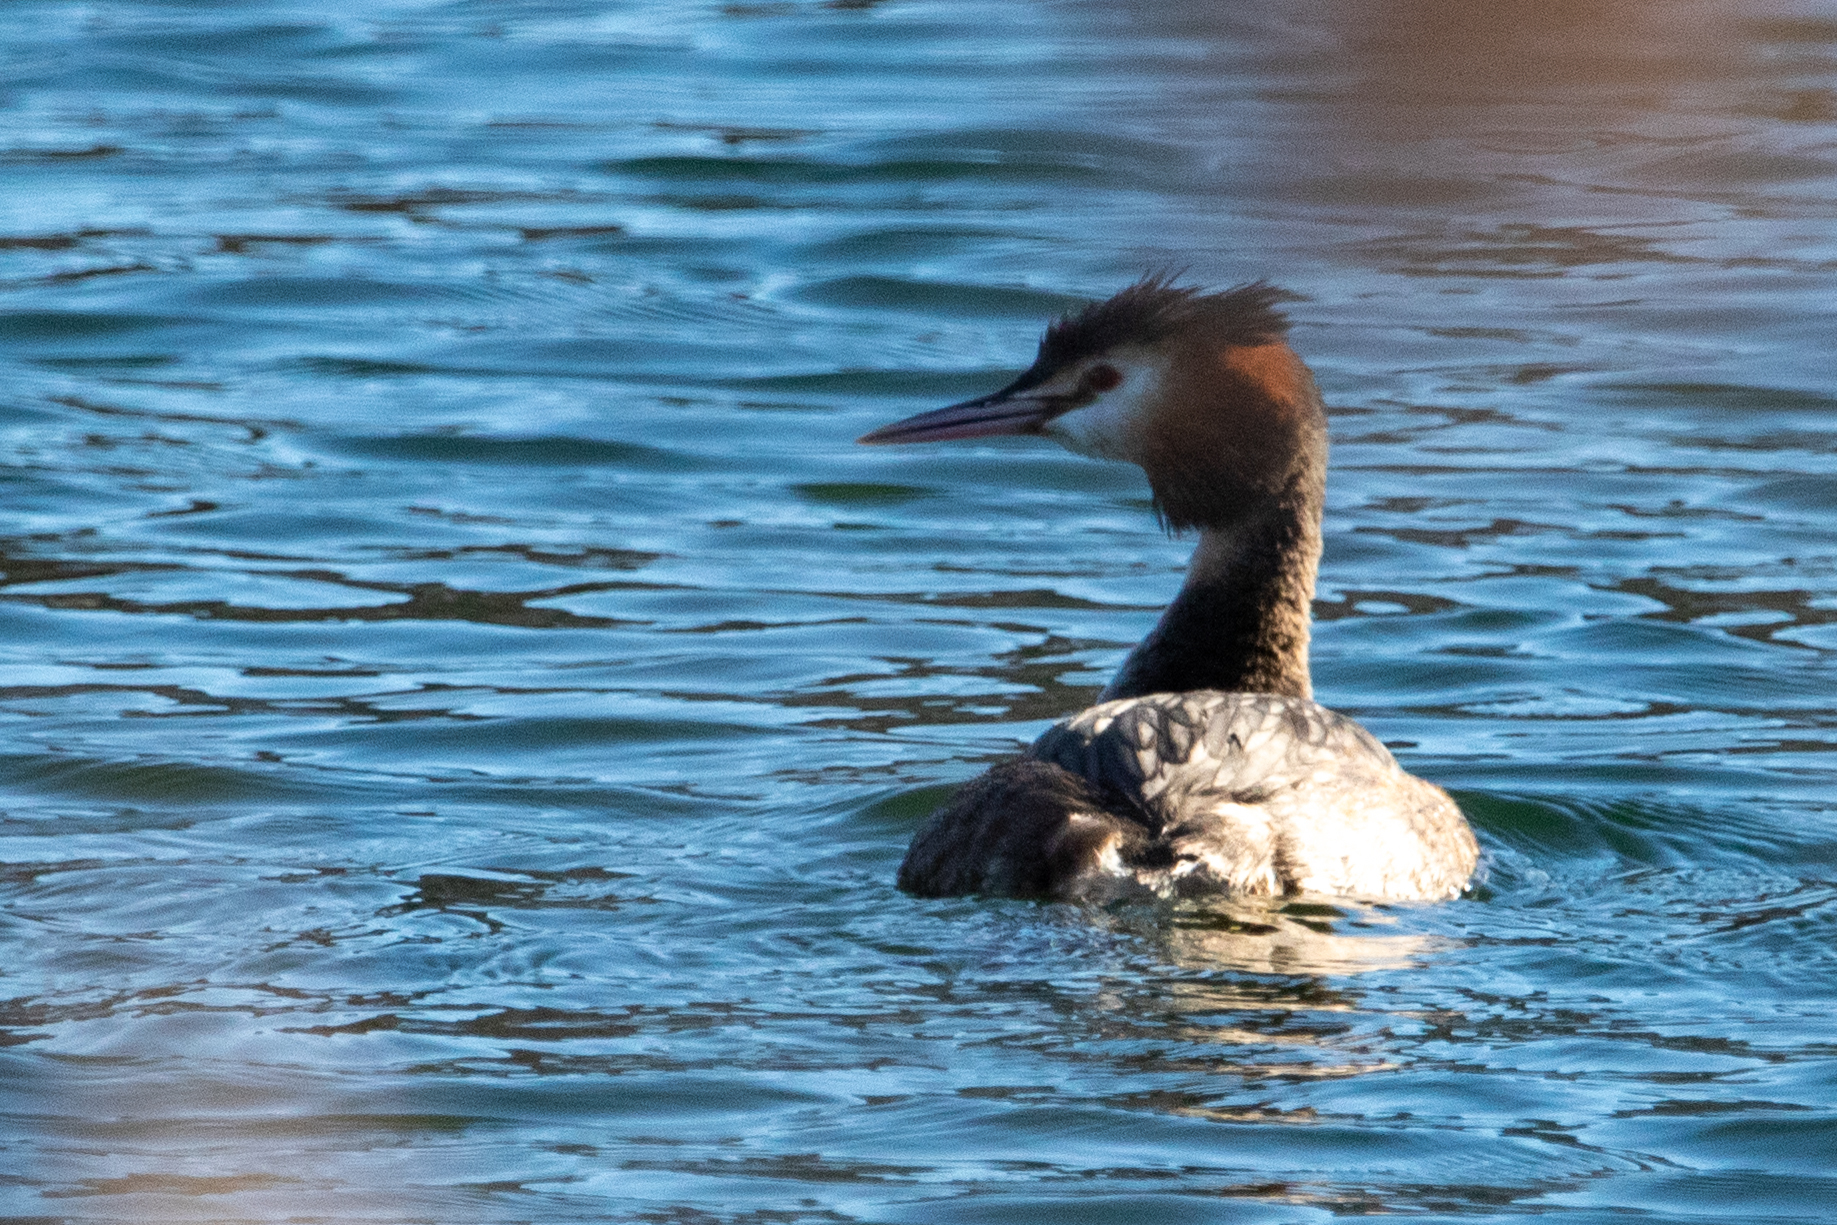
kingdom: Animalia
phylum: Chordata
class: Aves
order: Podicipediformes
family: Podicipedidae
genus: Podiceps
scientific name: Podiceps cristatus
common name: Great crested grebe
